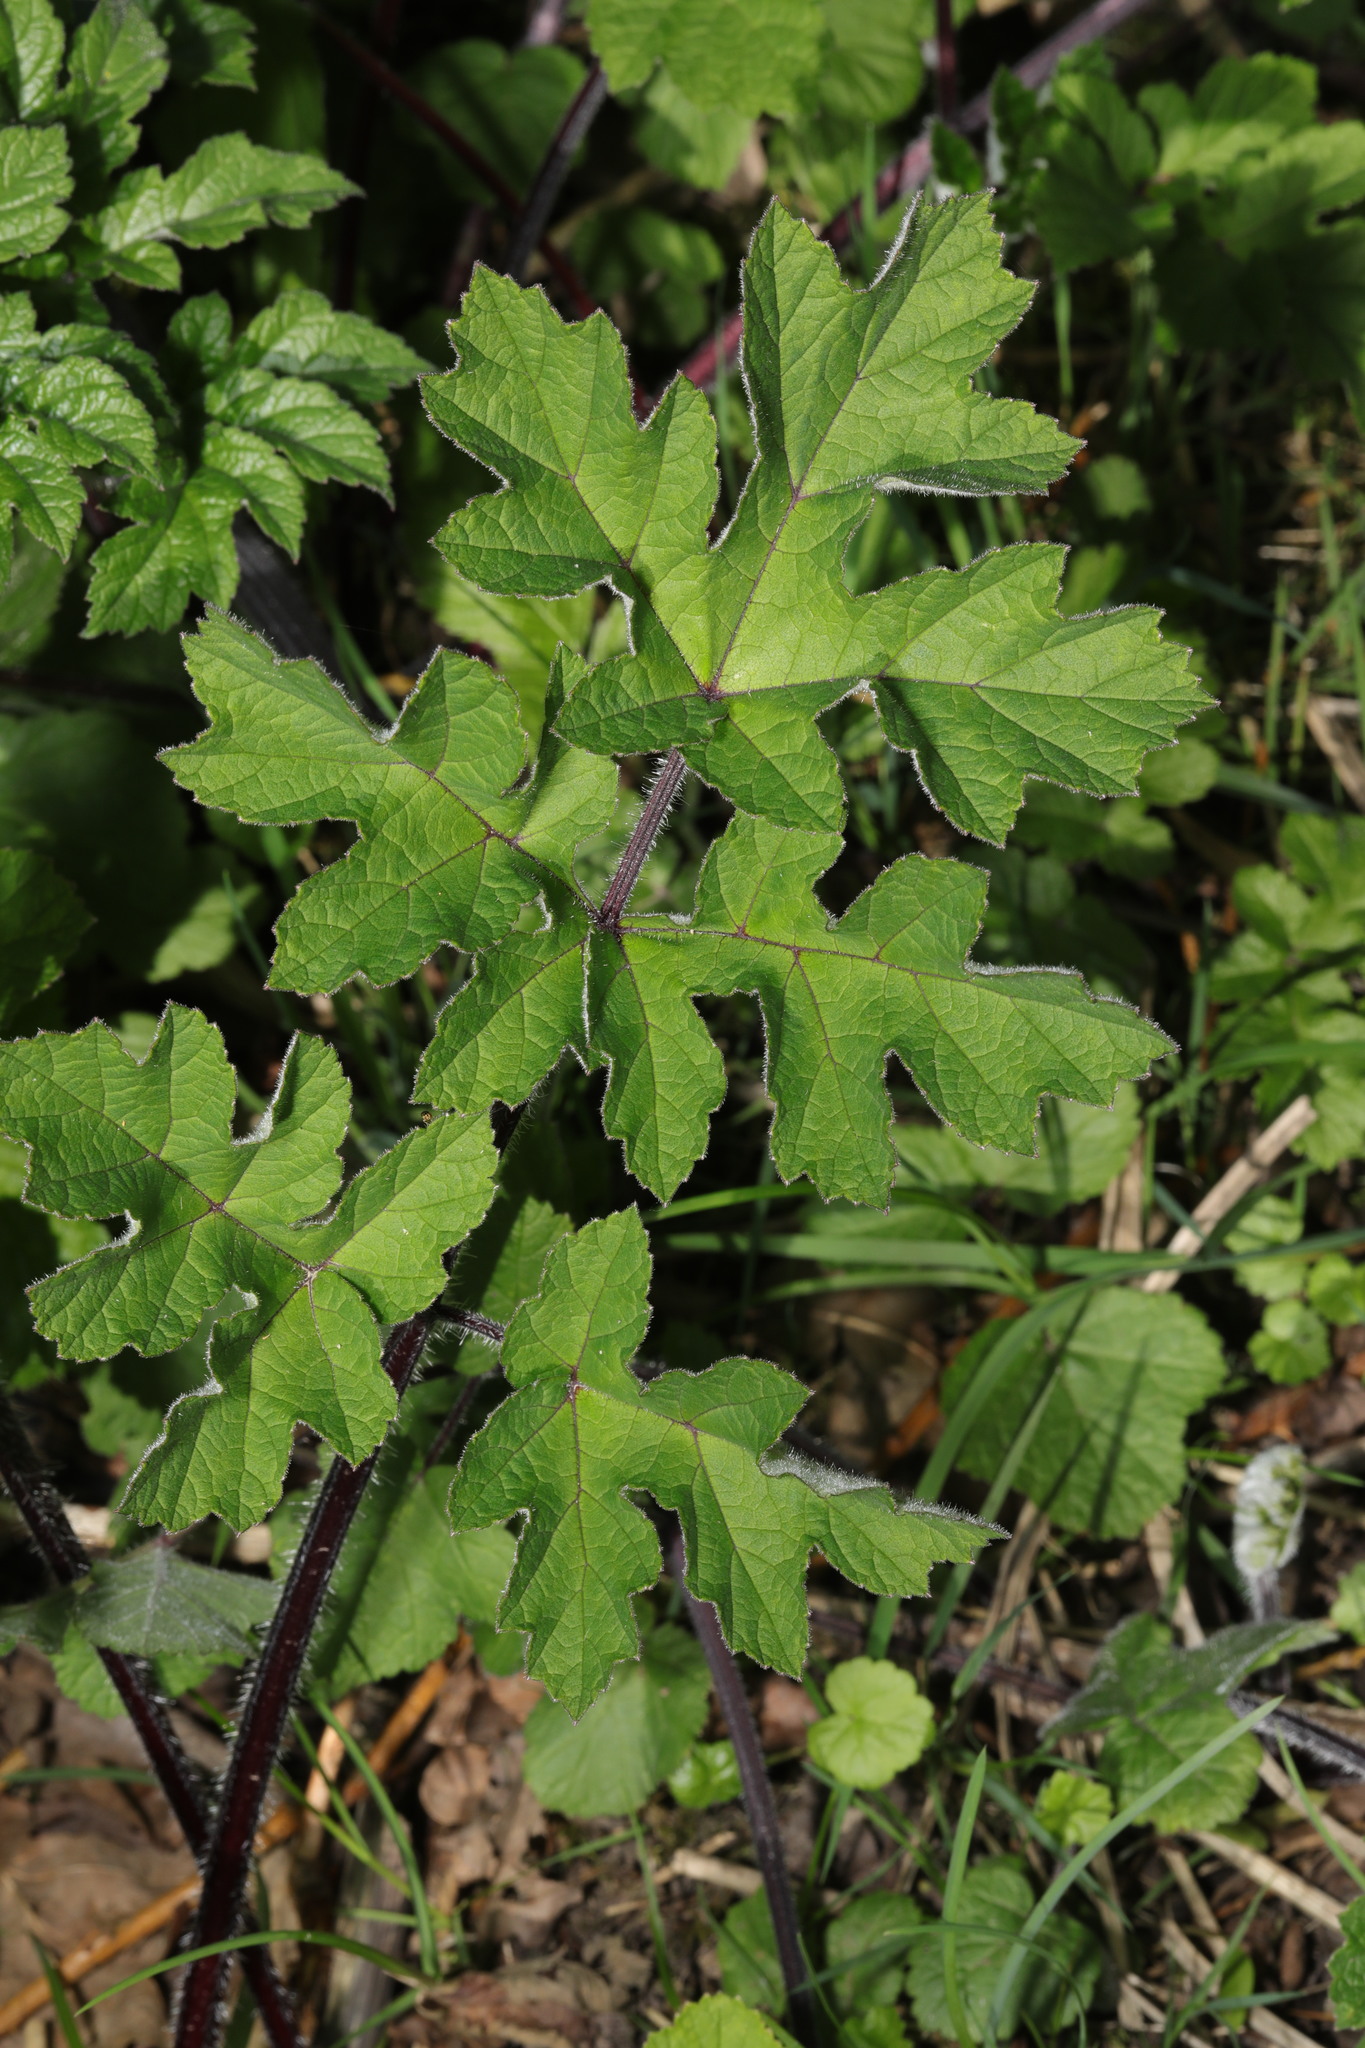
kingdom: Plantae
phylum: Tracheophyta
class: Magnoliopsida
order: Apiales
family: Apiaceae
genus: Heracleum
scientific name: Heracleum sphondylium
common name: Hogweed
